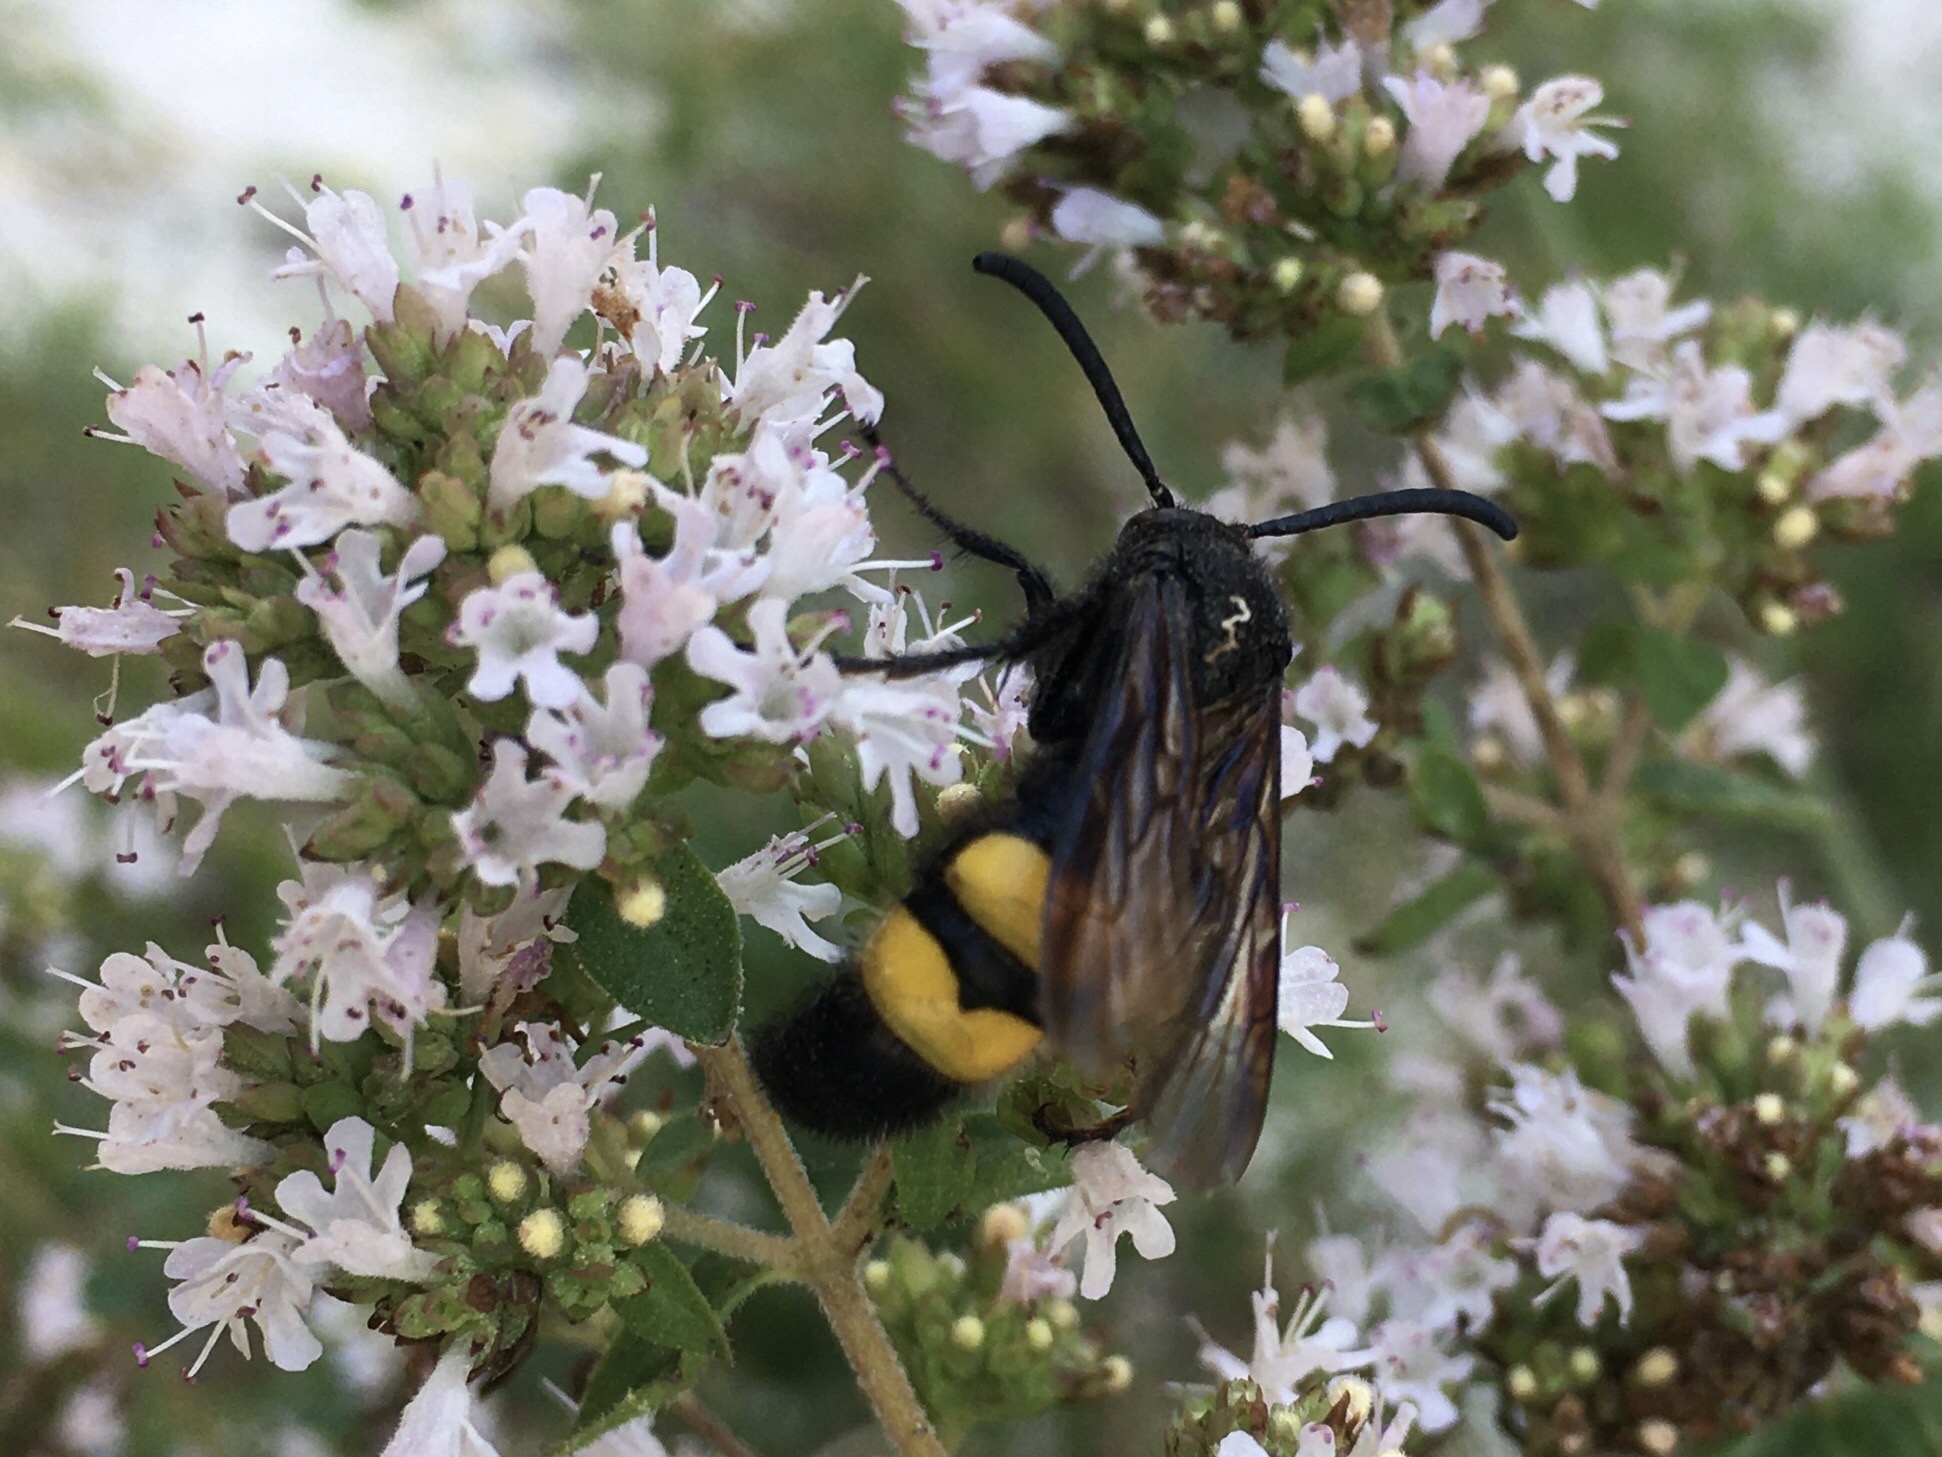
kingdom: Animalia
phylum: Arthropoda
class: Insecta
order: Hymenoptera
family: Scoliidae
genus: Scolia
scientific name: Scolia hirta
